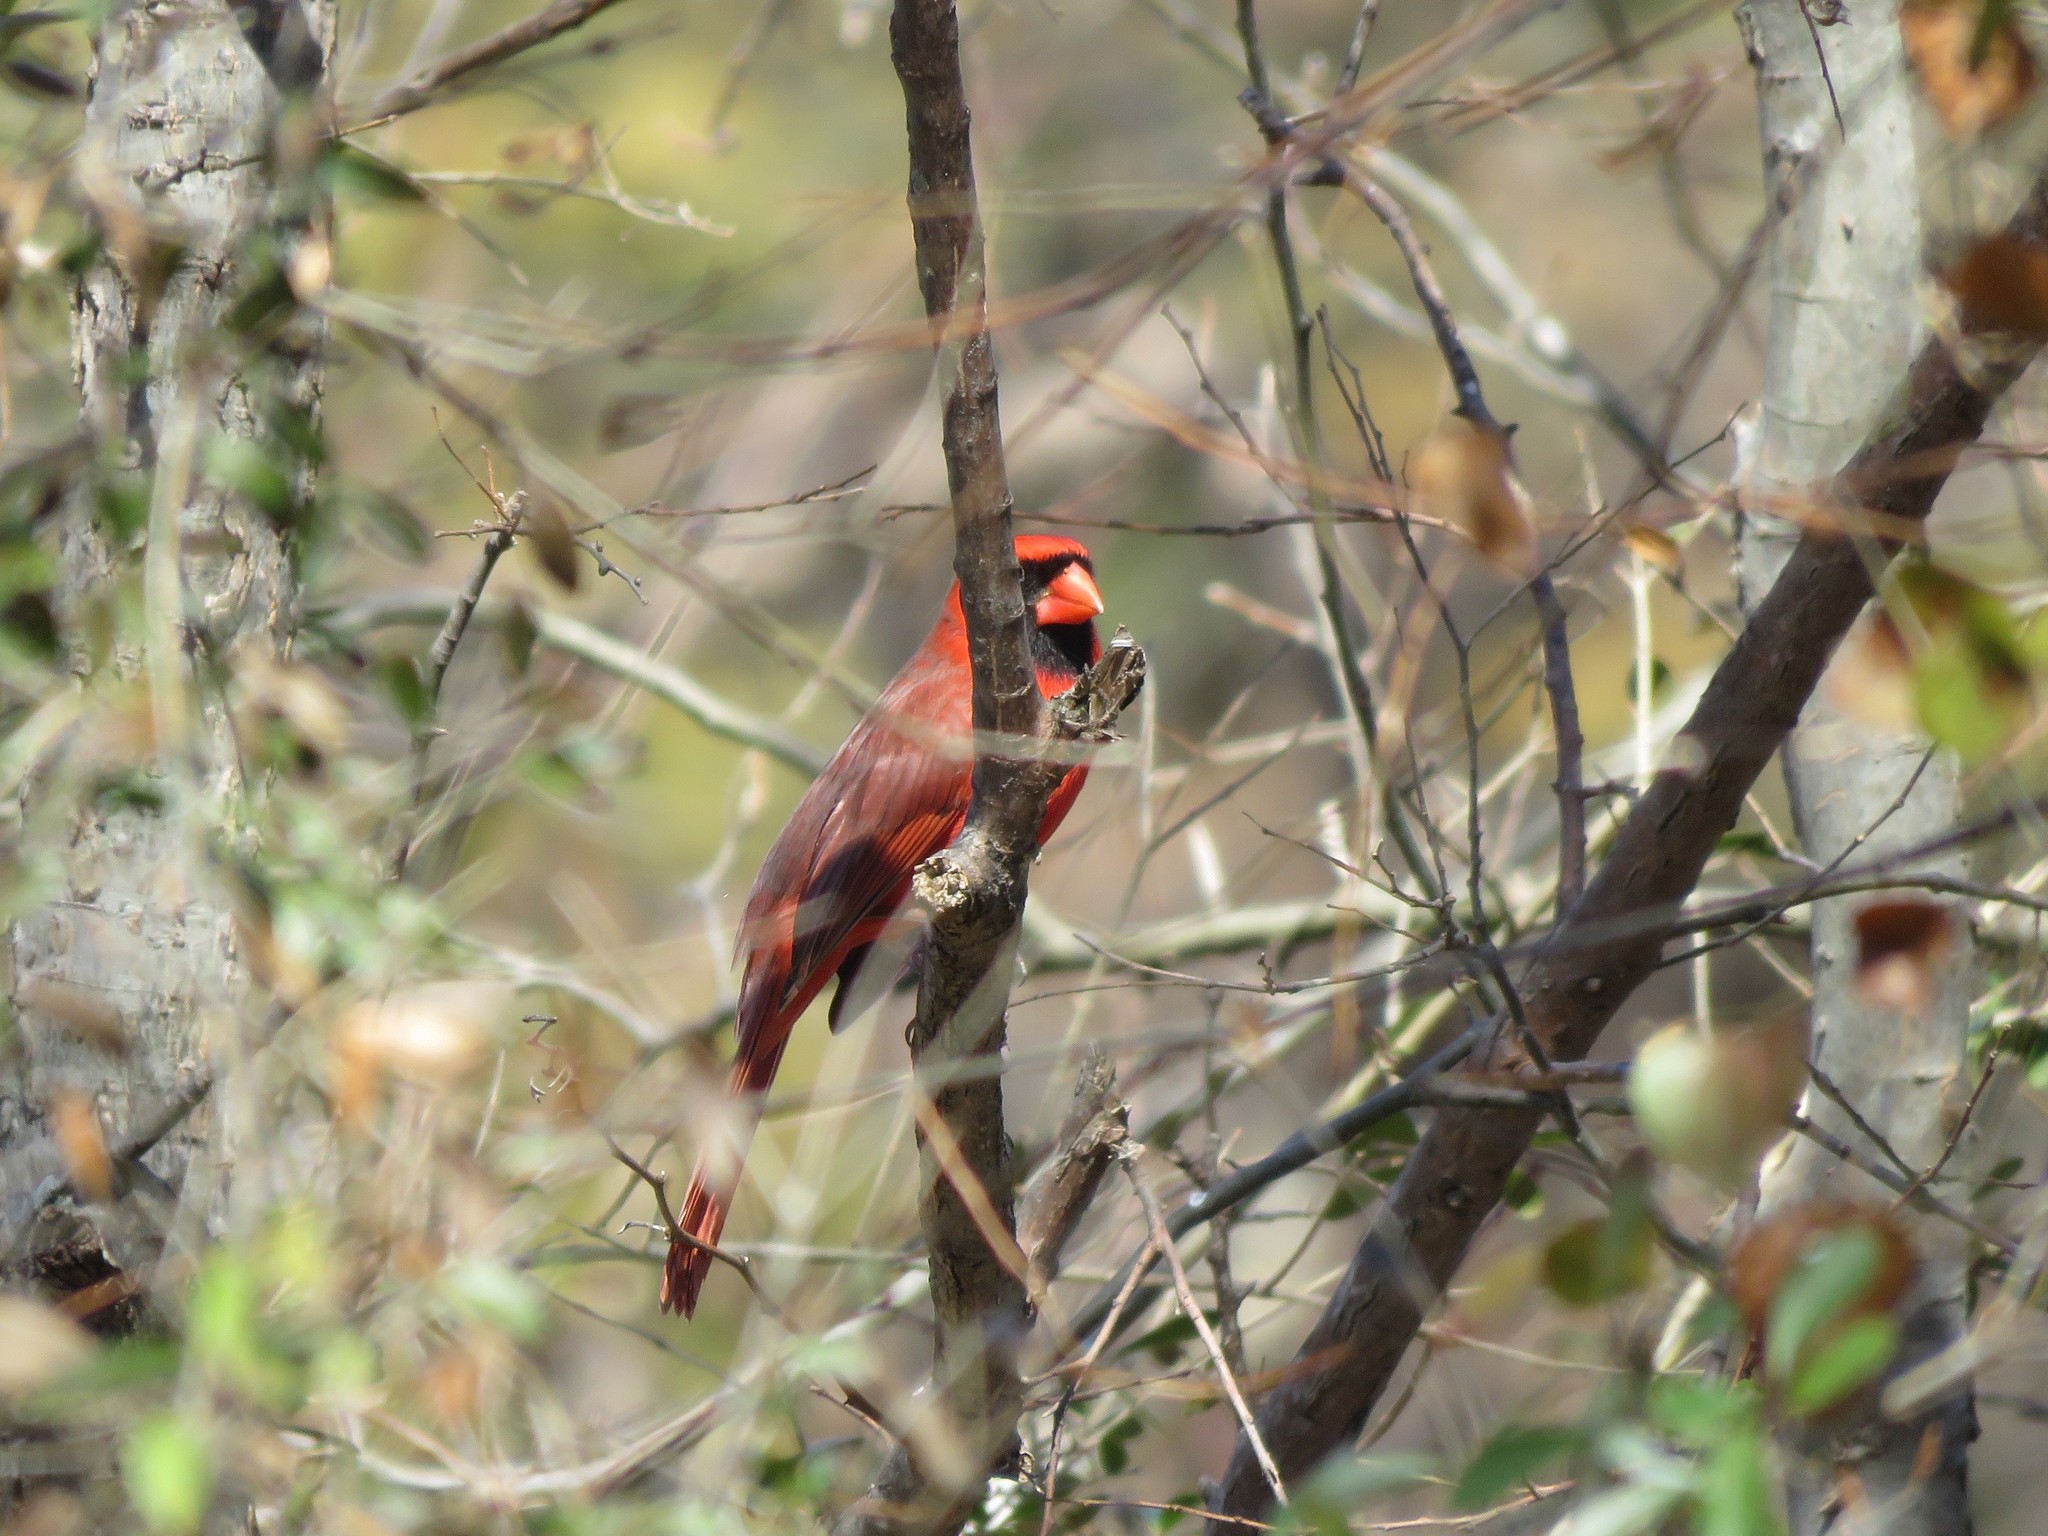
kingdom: Animalia
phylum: Chordata
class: Aves
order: Passeriformes
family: Cardinalidae
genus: Cardinalis
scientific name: Cardinalis cardinalis
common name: Northern cardinal
